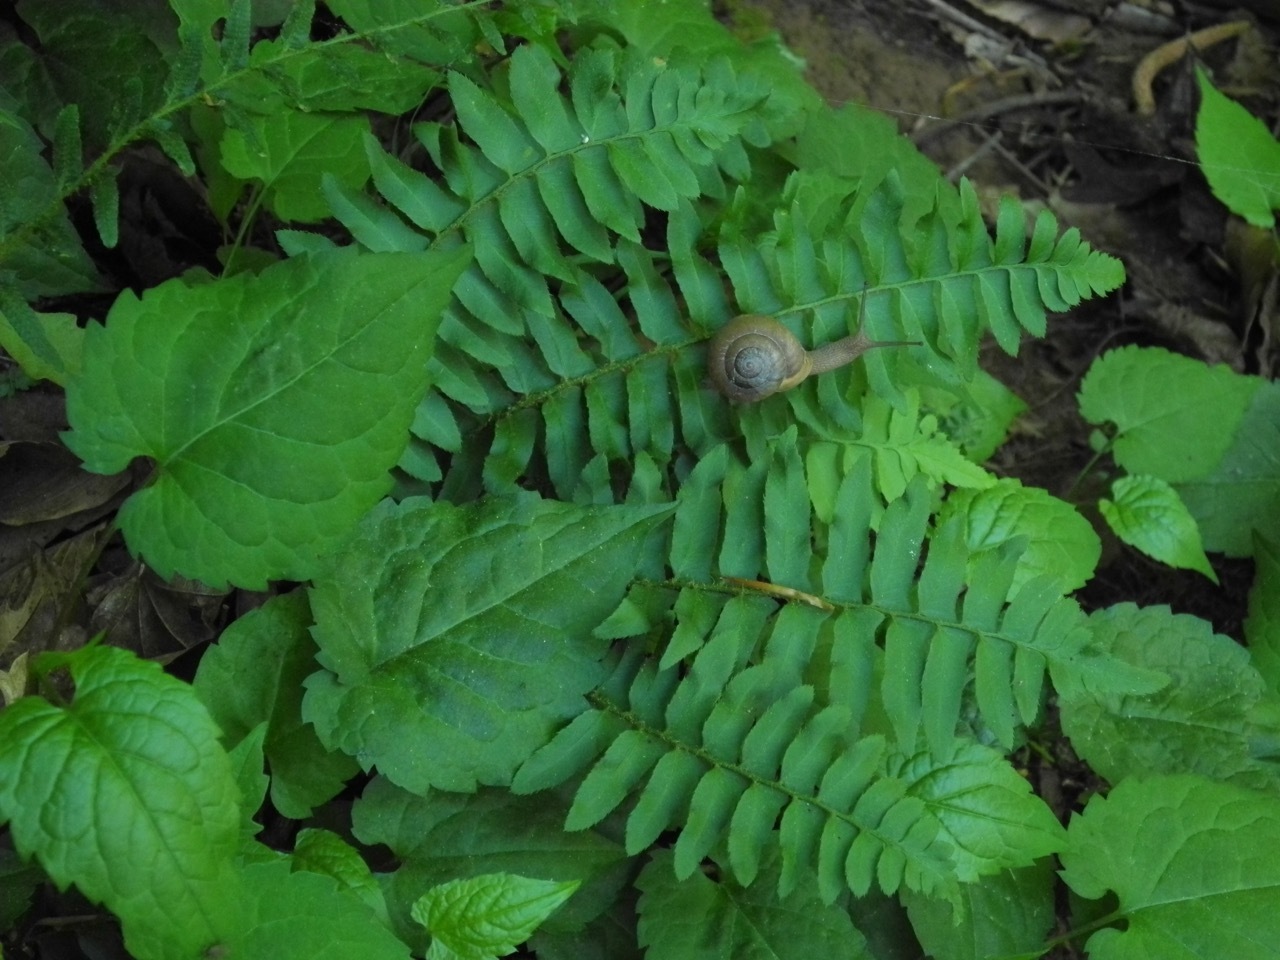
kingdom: Plantae
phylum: Tracheophyta
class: Polypodiopsida
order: Polypodiales
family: Dryopteridaceae
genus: Polystichum
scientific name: Polystichum acrostichoides
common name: Christmas fern
